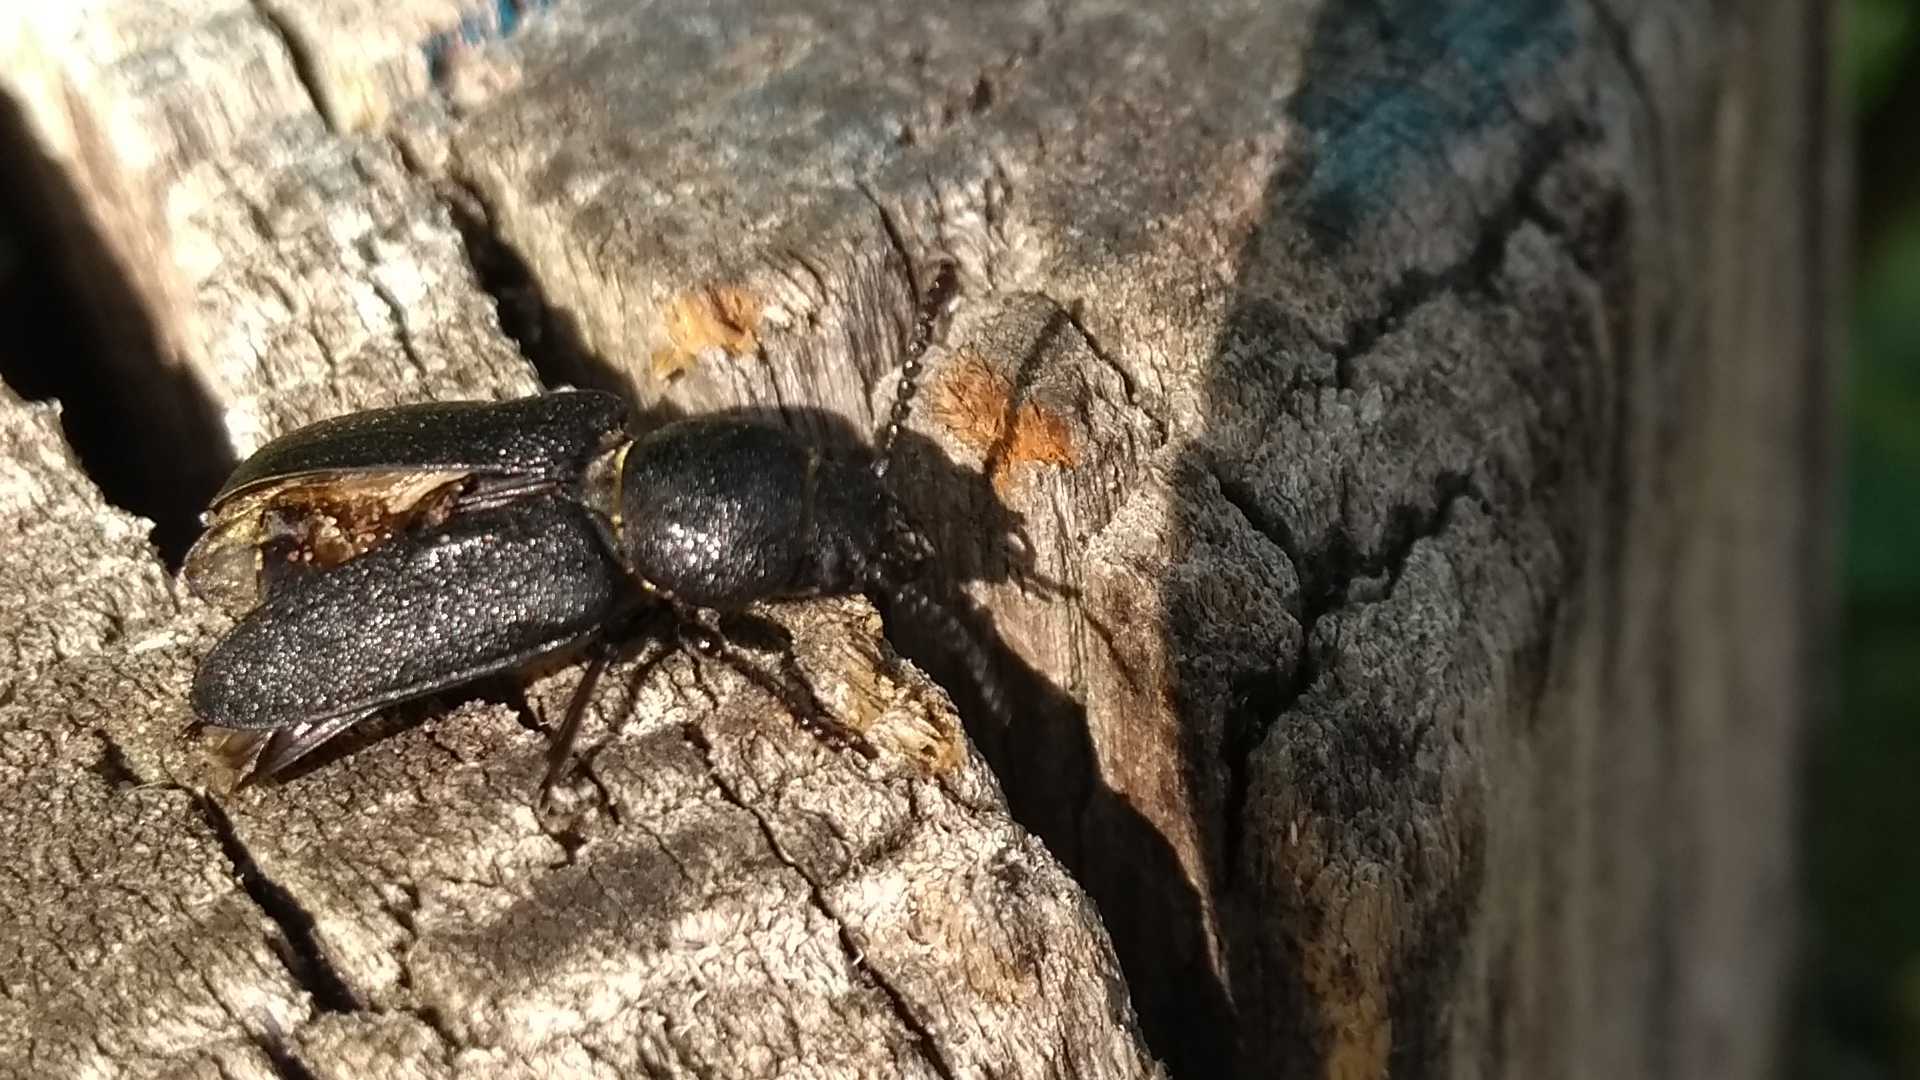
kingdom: Animalia
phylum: Arthropoda
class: Insecta
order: Coleoptera
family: Cerambycidae
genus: Spondylis
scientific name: Spondylis buprestoides
